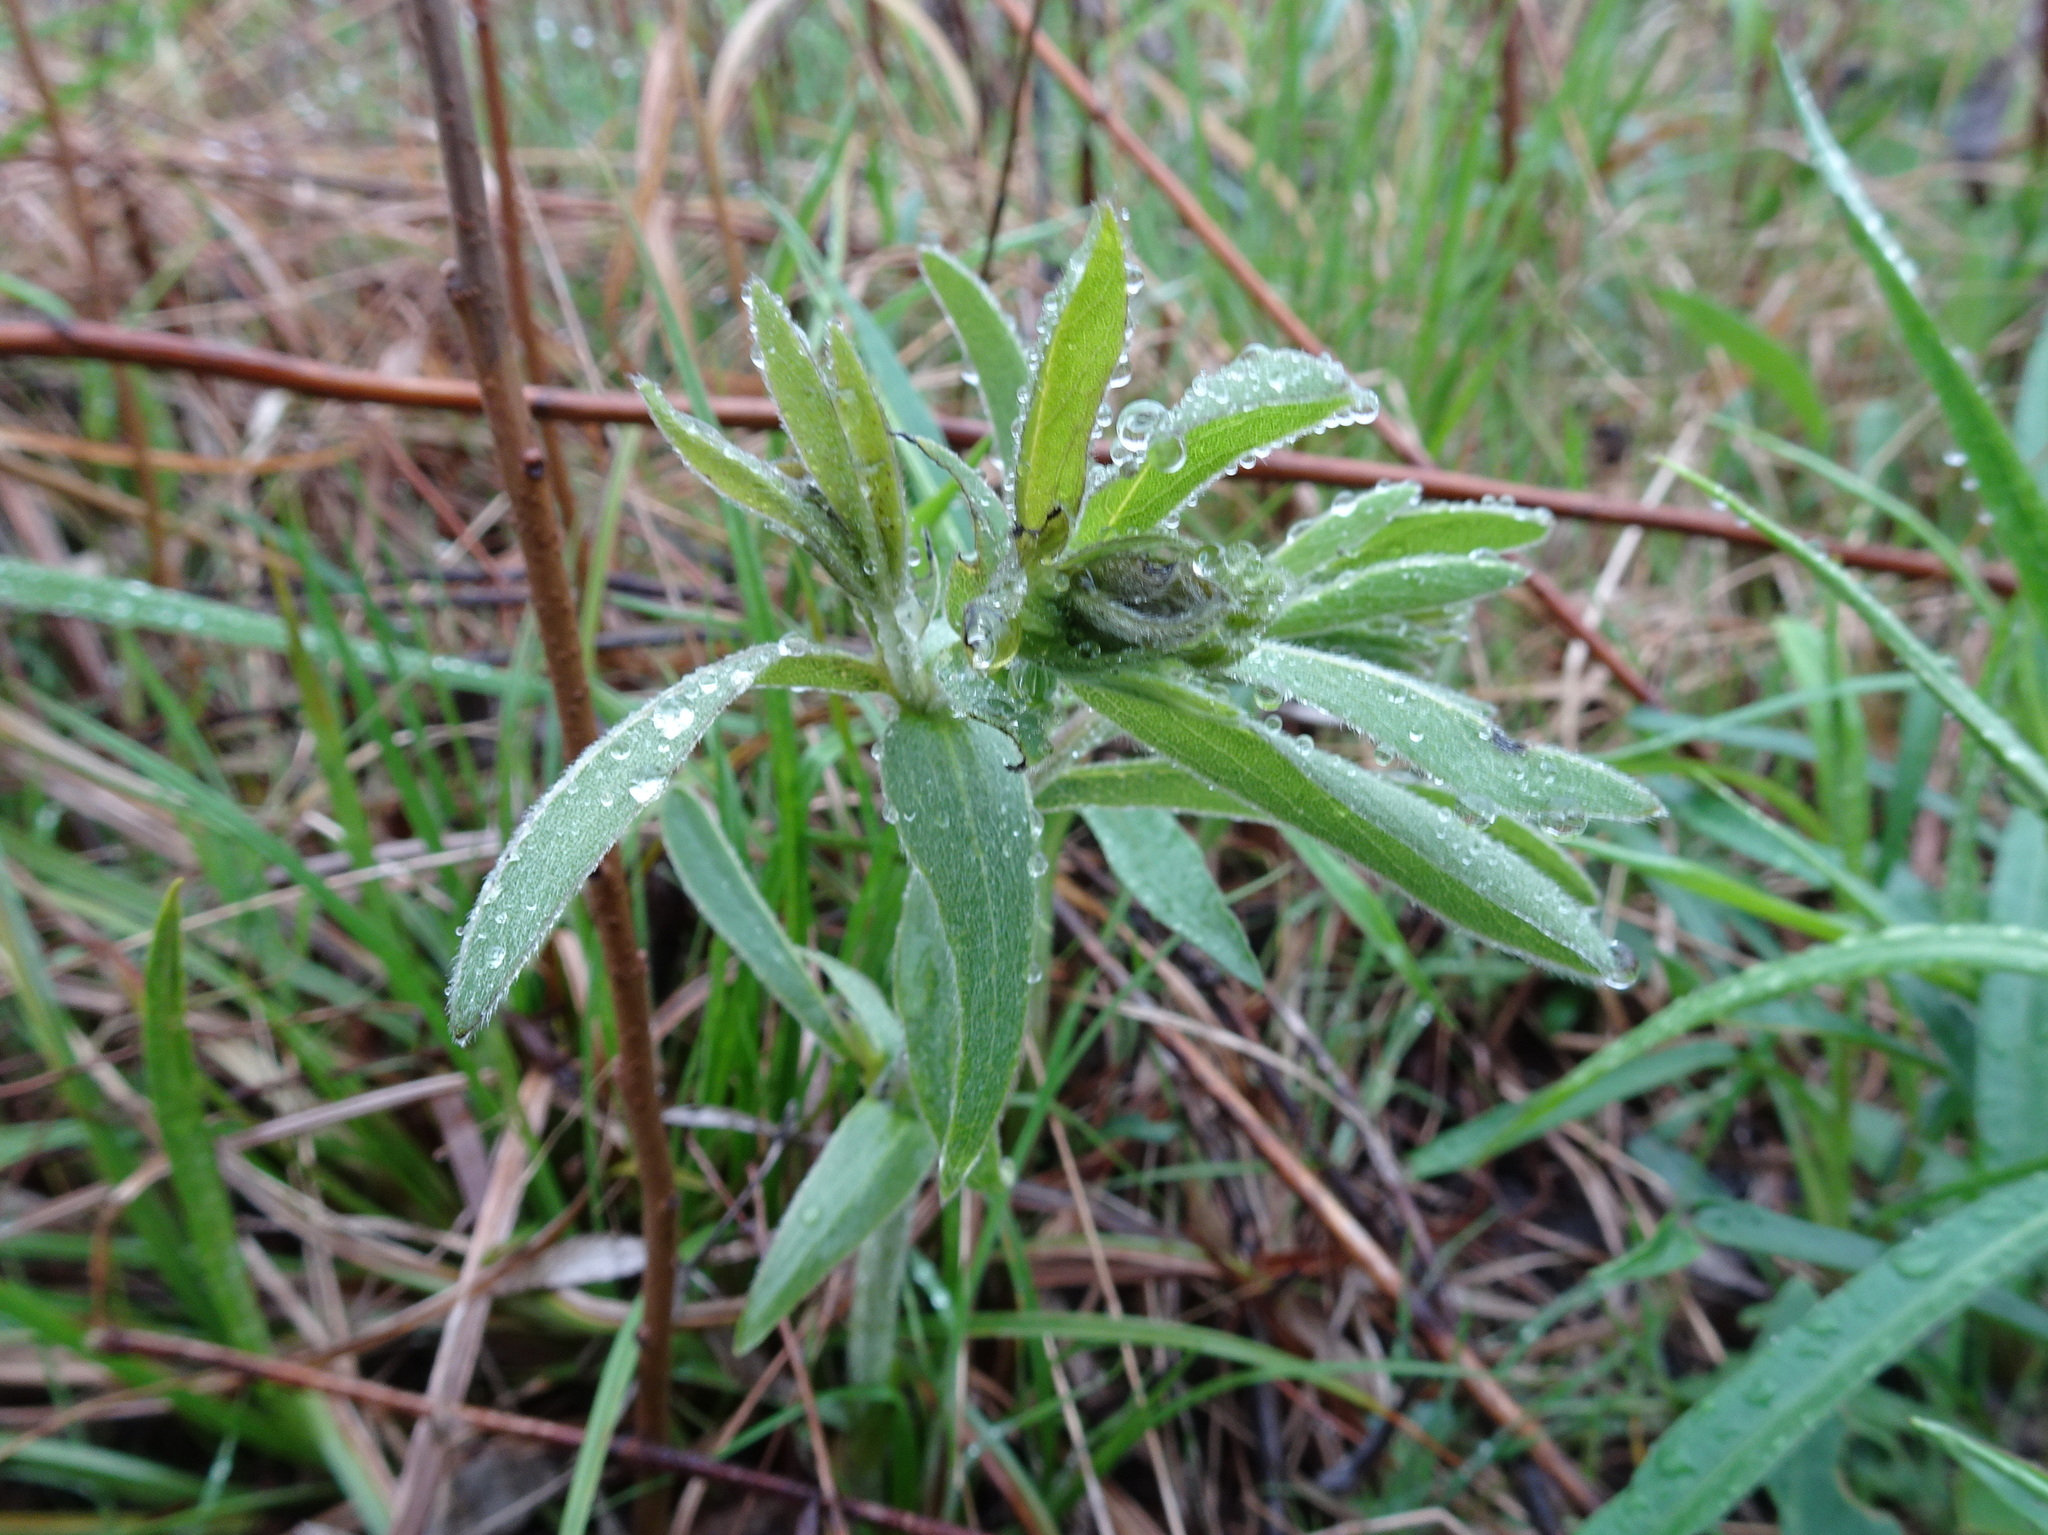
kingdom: Plantae
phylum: Tracheophyta
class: Magnoliopsida
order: Fabales
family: Fabaceae
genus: Baptisia
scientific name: Baptisia bracteata
